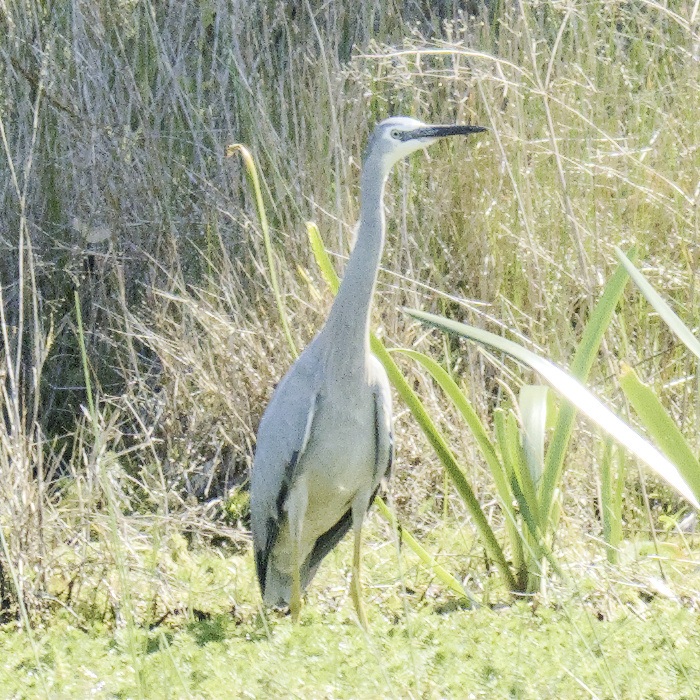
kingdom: Animalia
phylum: Chordata
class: Aves
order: Pelecaniformes
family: Ardeidae
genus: Egretta
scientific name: Egretta novaehollandiae
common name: White-faced heron
